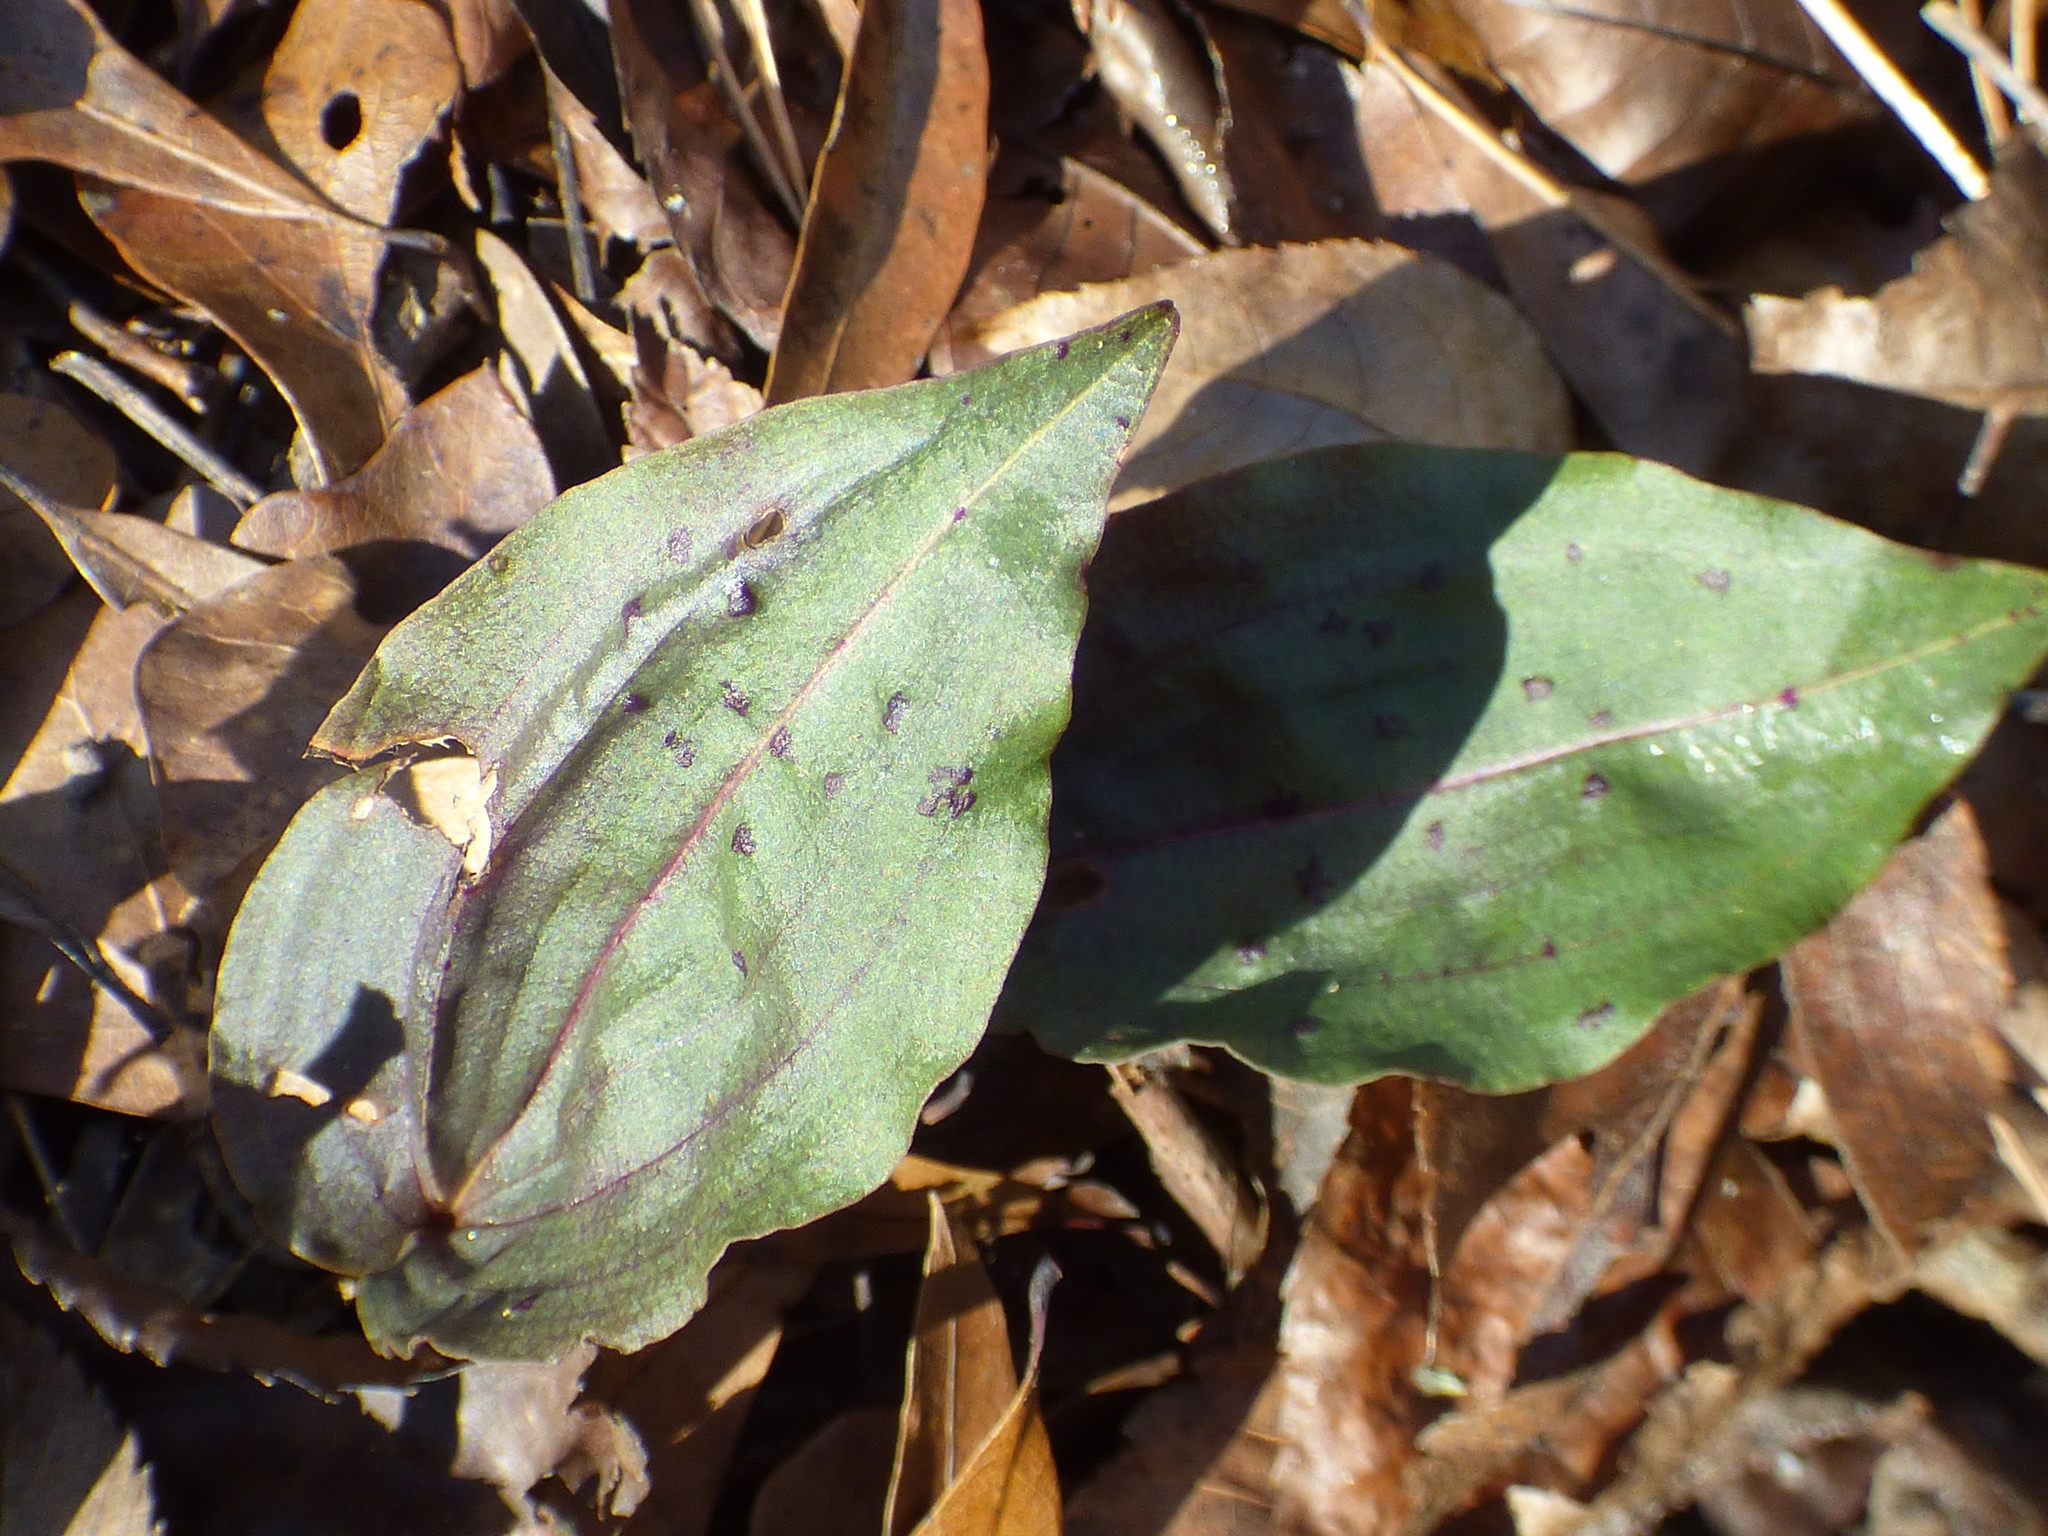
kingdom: Plantae
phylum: Tracheophyta
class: Liliopsida
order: Asparagales
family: Orchidaceae
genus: Tipularia
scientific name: Tipularia discolor
